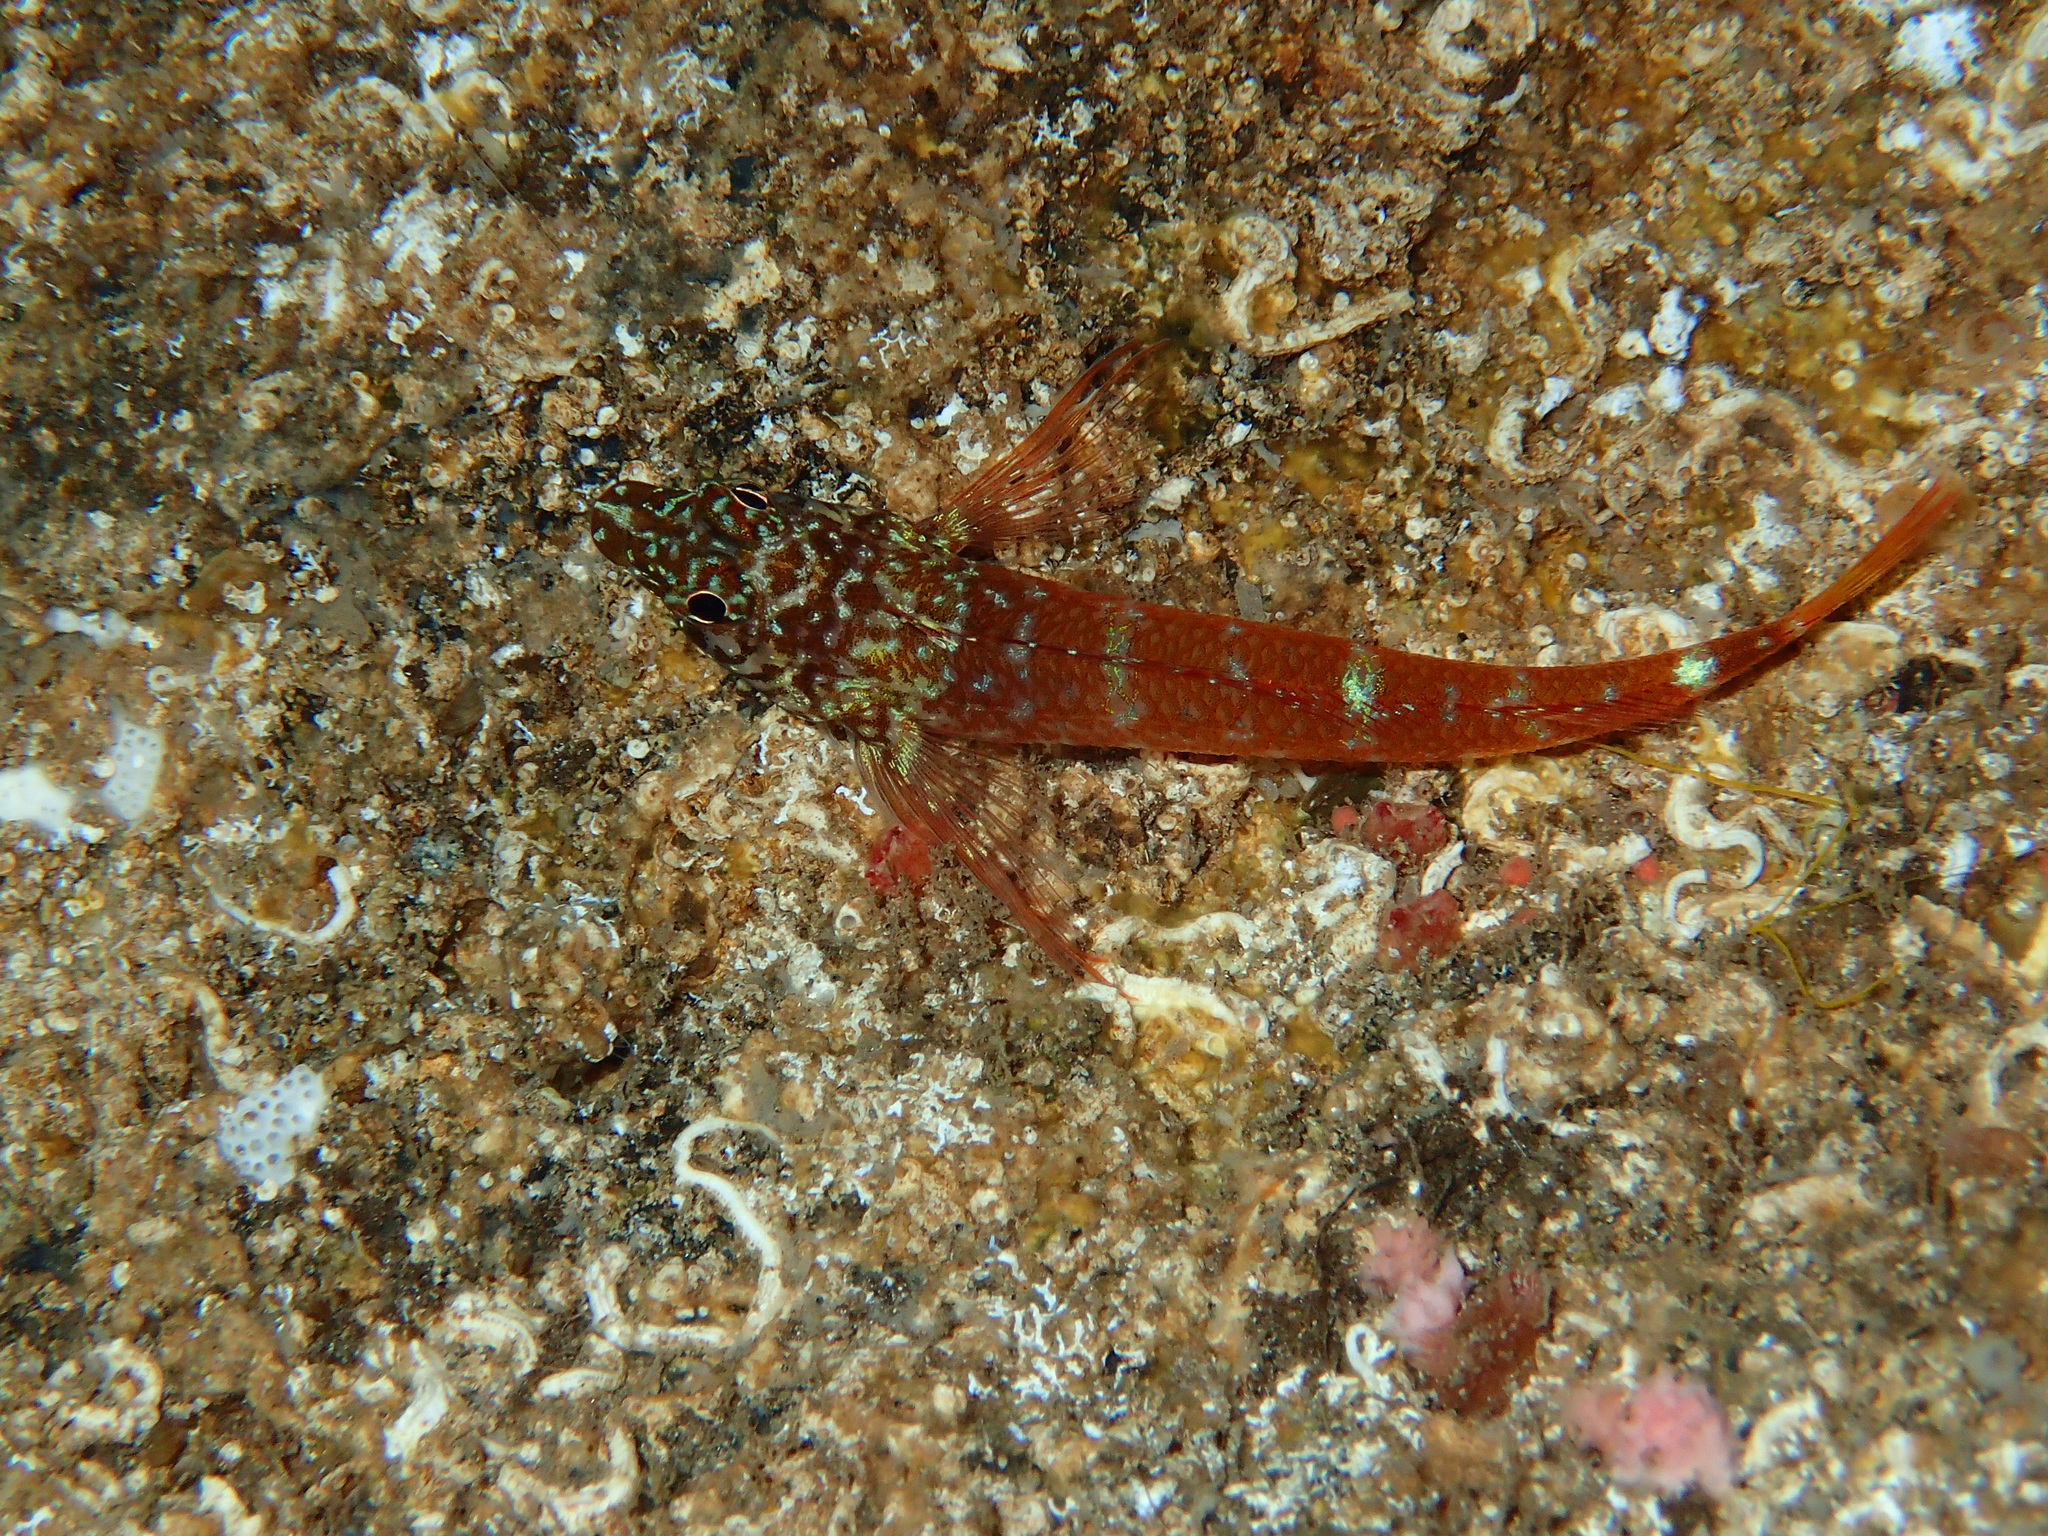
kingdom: Animalia
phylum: Chordata
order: Perciformes
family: Tripterygiidae
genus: Tripterygion
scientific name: Tripterygion melanurum
